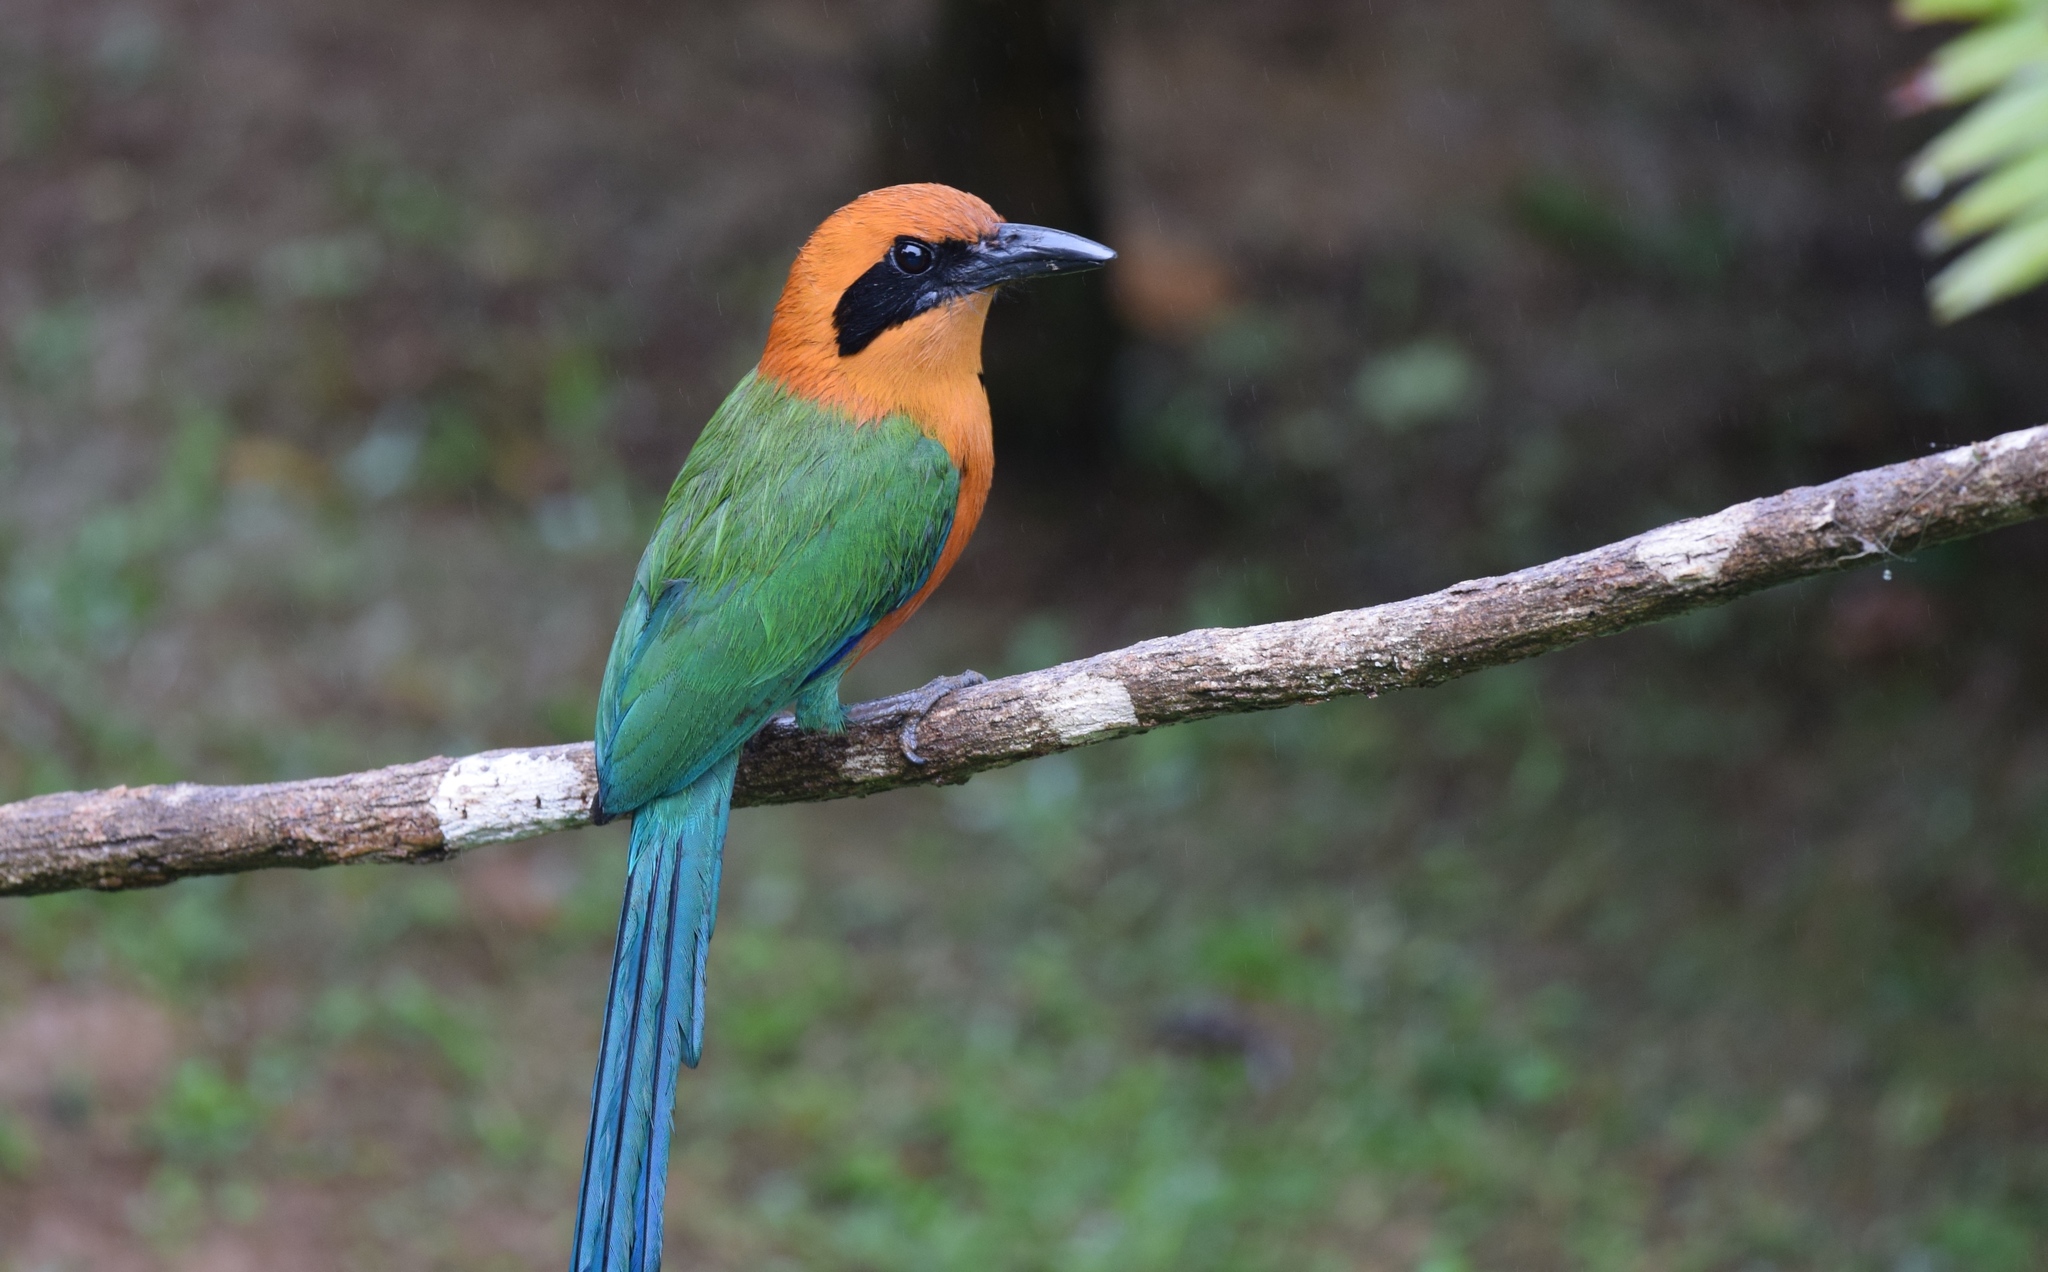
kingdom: Animalia
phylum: Chordata
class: Aves
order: Coraciiformes
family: Momotidae
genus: Baryphthengus
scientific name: Baryphthengus martii
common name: Rufous motmot
